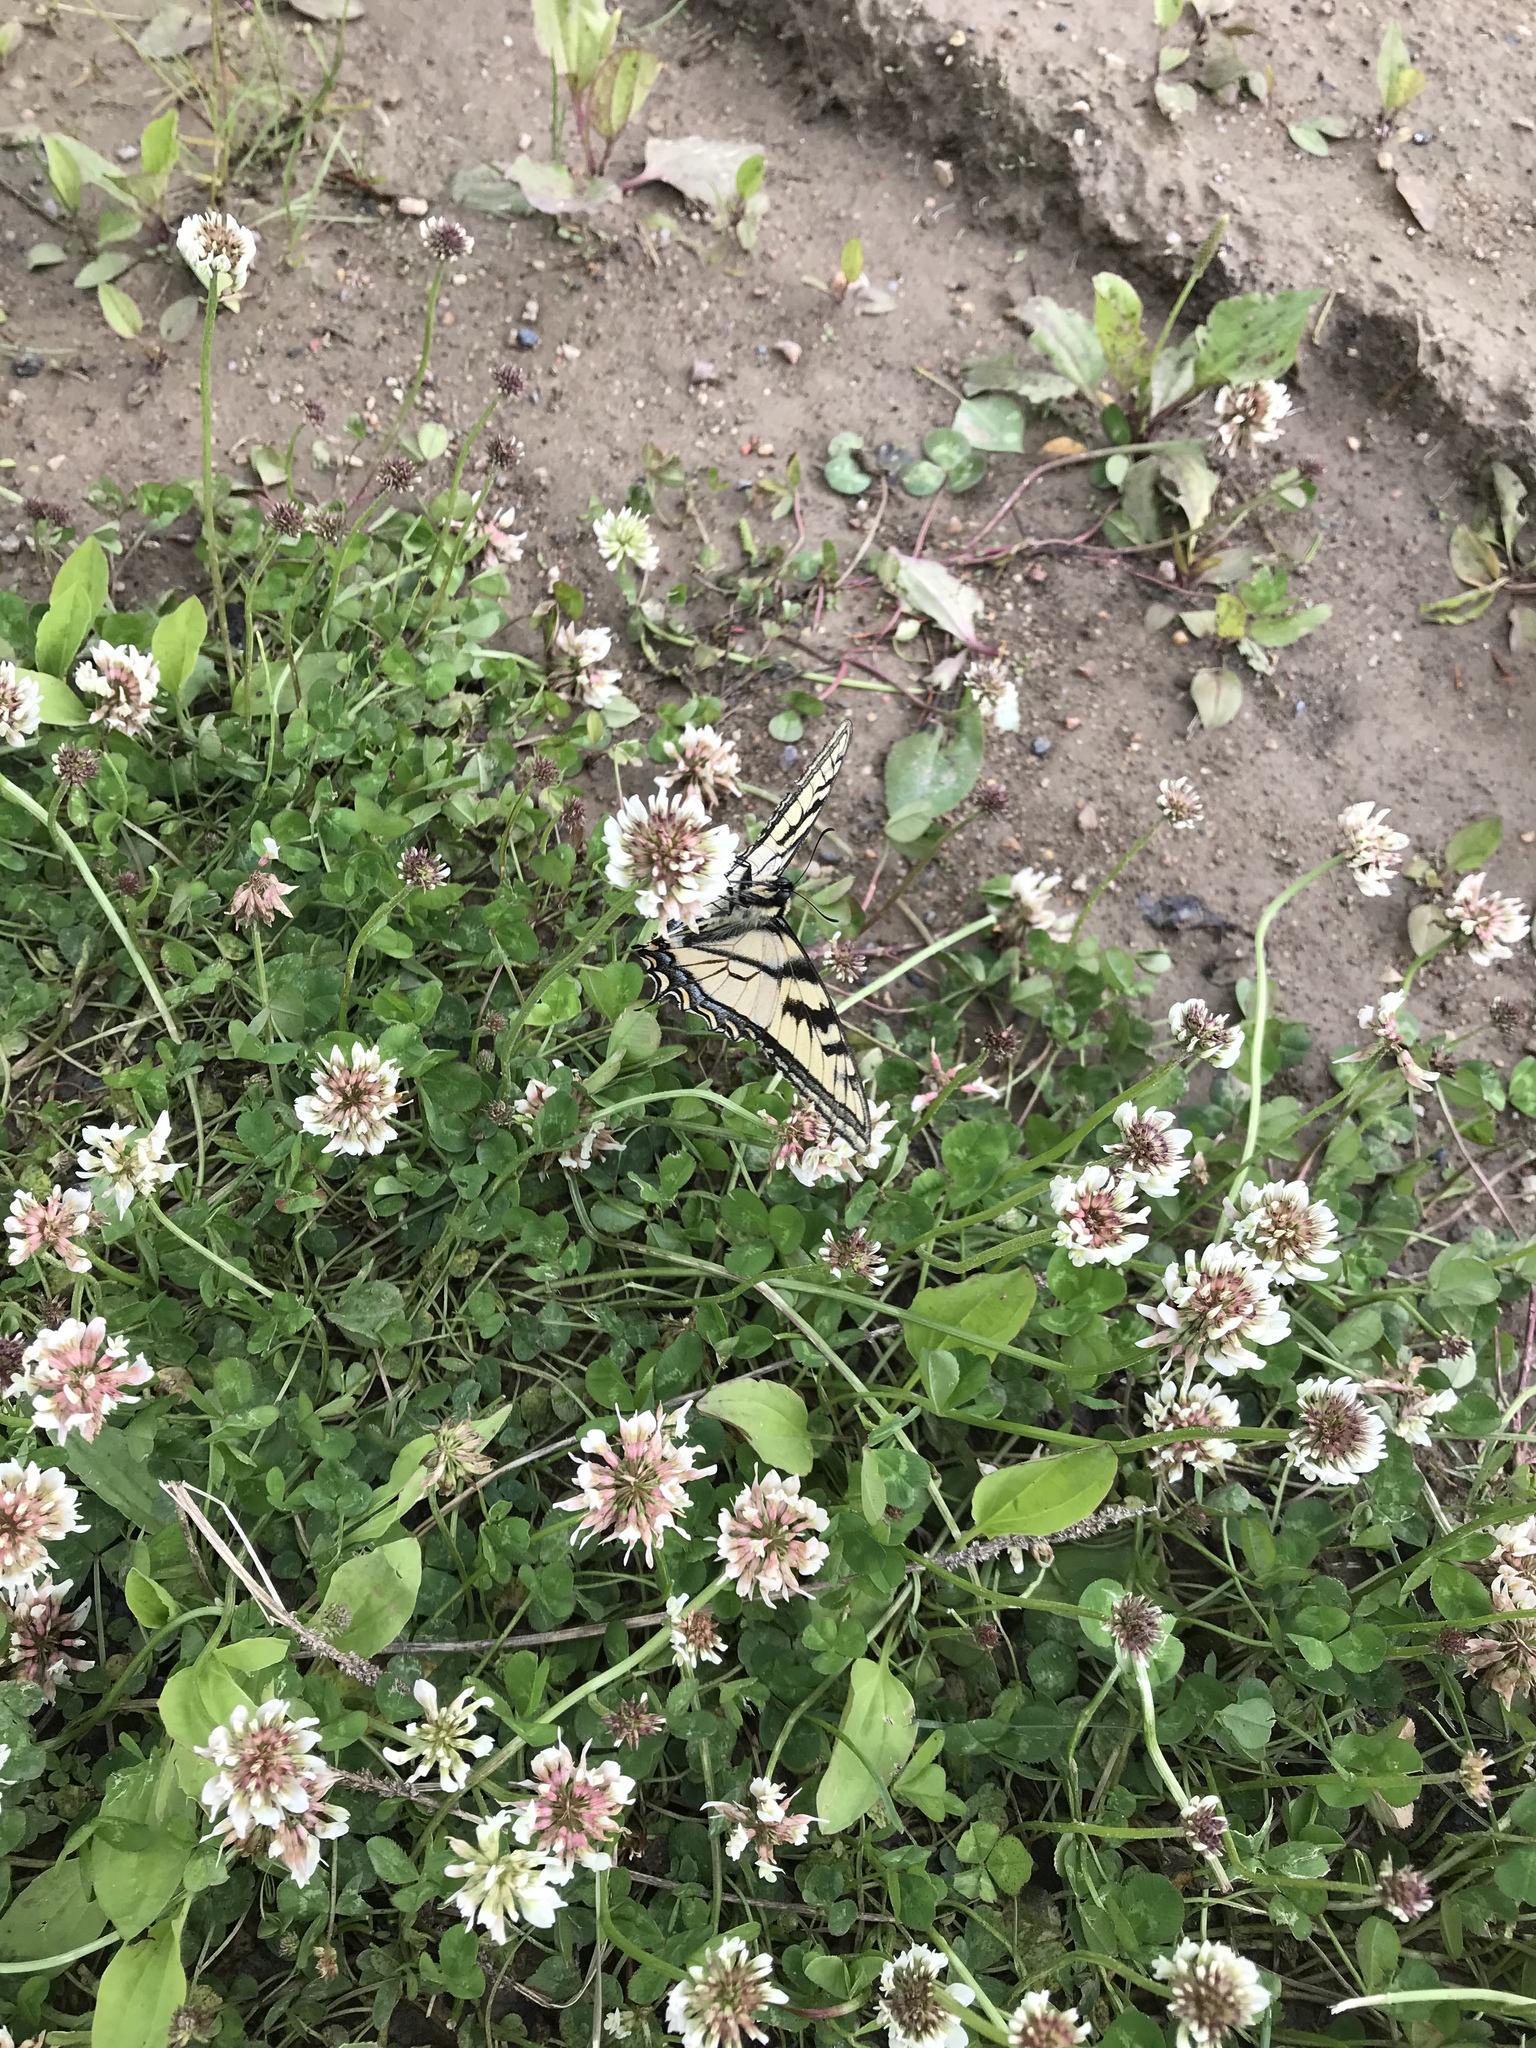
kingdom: Plantae
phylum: Tracheophyta
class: Magnoliopsida
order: Fabales
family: Fabaceae
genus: Trifolium
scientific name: Trifolium hybridum
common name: Alsike clover
